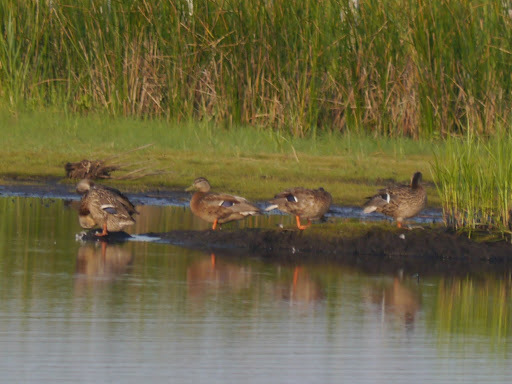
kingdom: Animalia
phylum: Chordata
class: Aves
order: Anseriformes
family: Anatidae
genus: Anas
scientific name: Anas platyrhynchos
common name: Mallard
